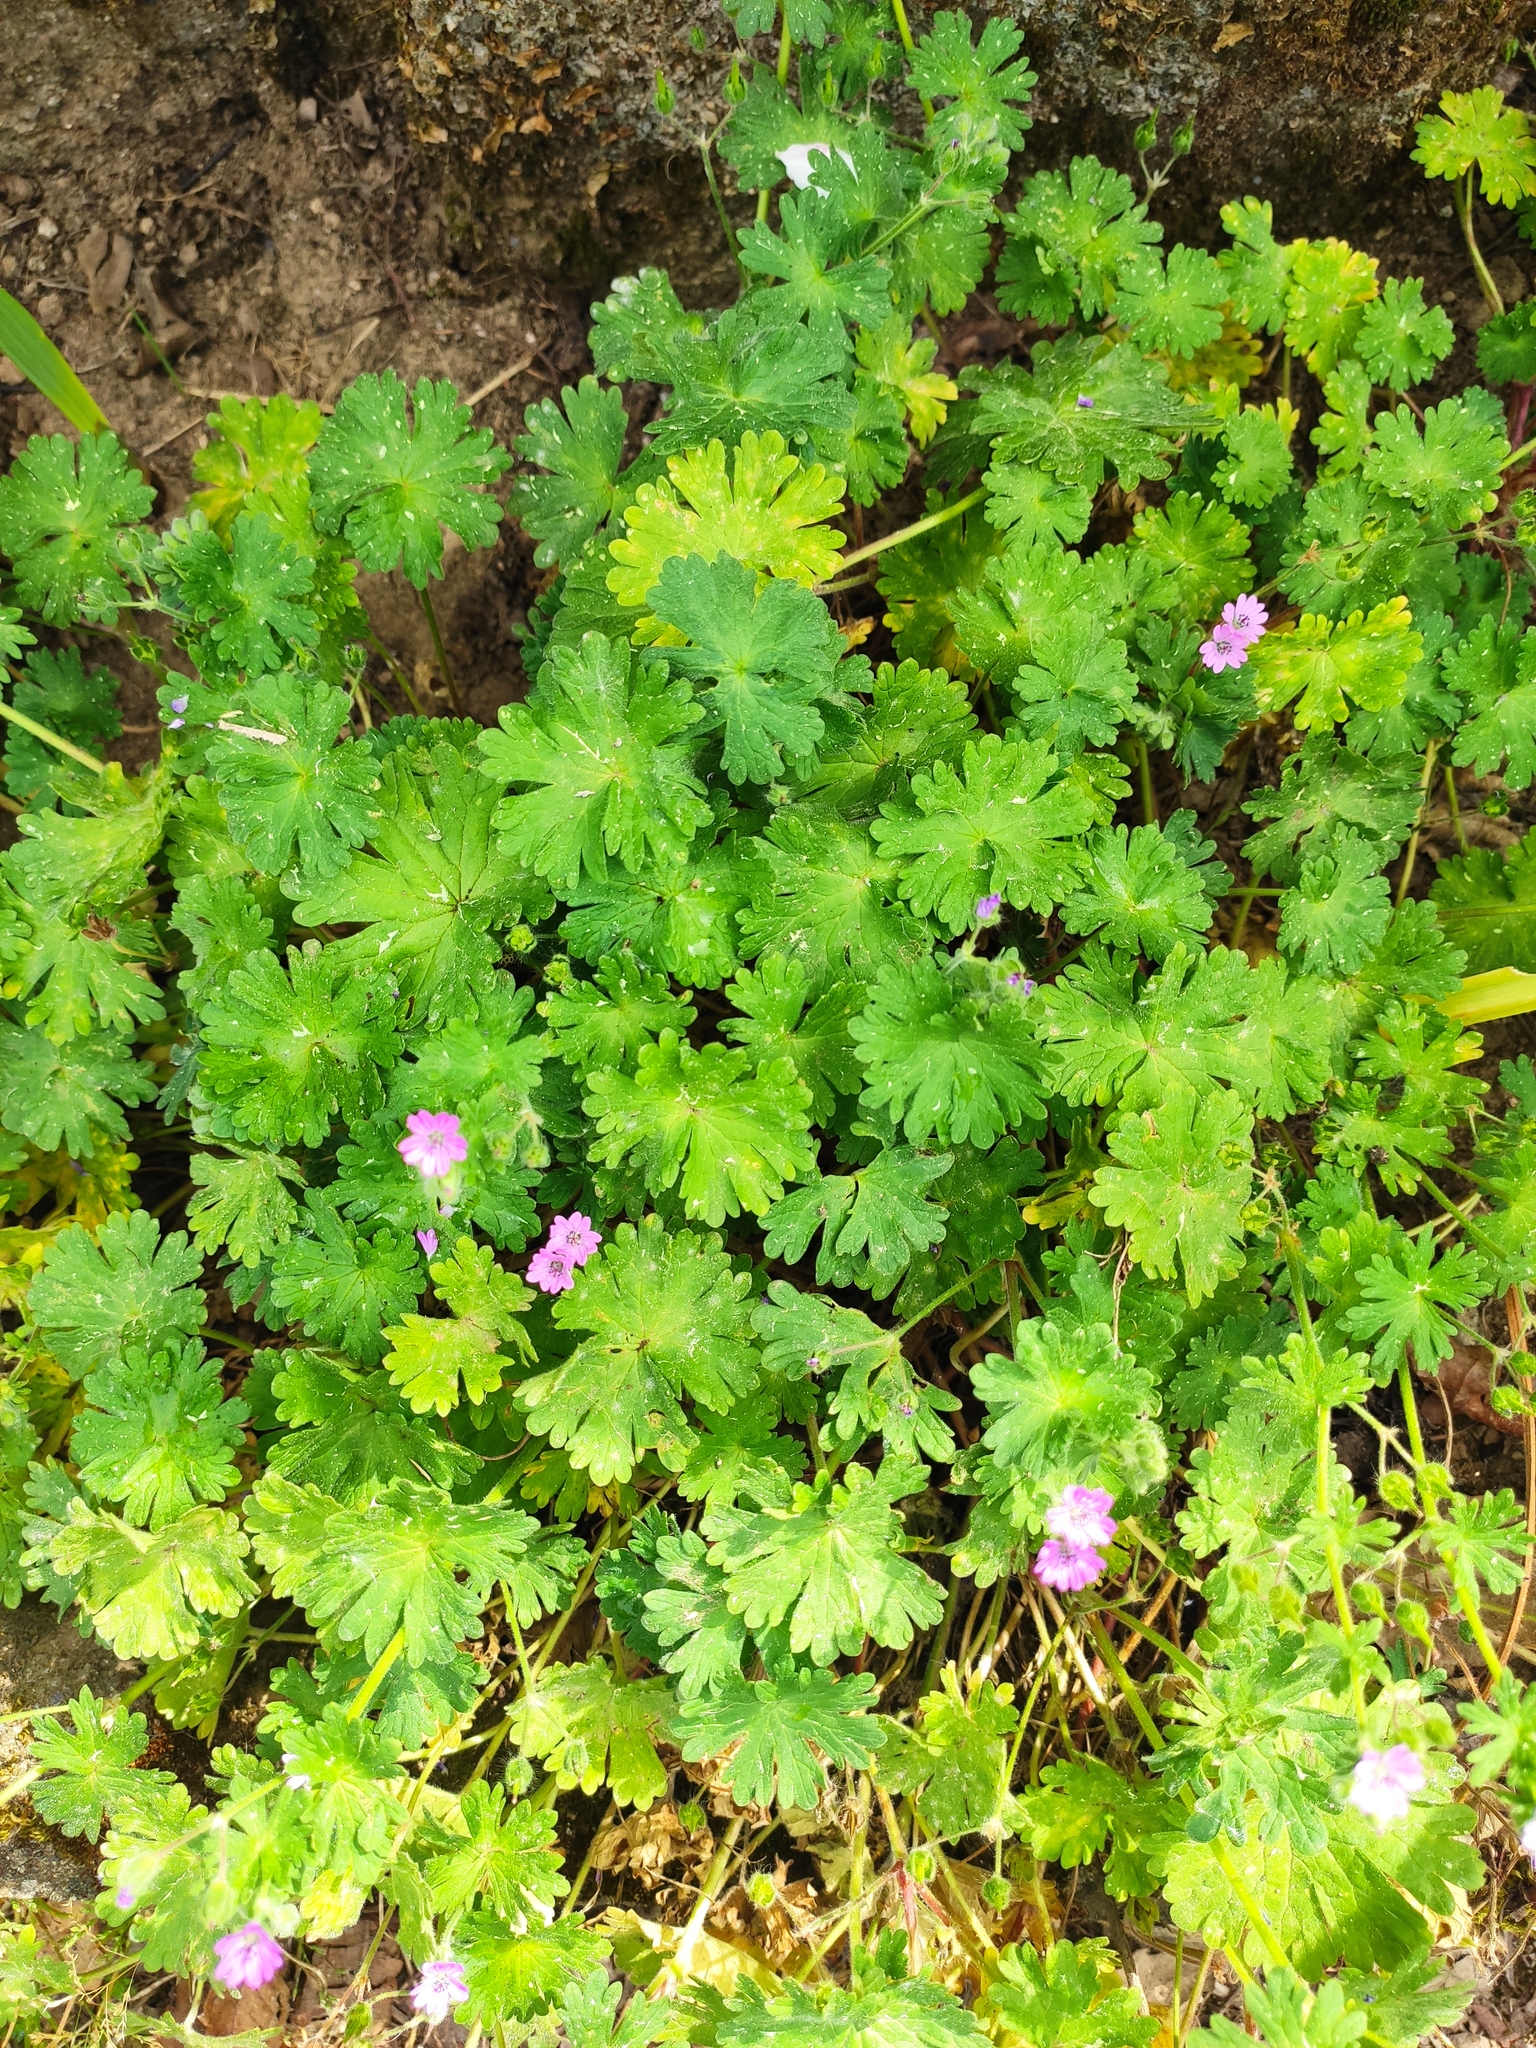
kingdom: Plantae
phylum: Tracheophyta
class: Magnoliopsida
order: Geraniales
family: Geraniaceae
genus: Geranium
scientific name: Geranium molle
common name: Dove's-foot crane's-bill
